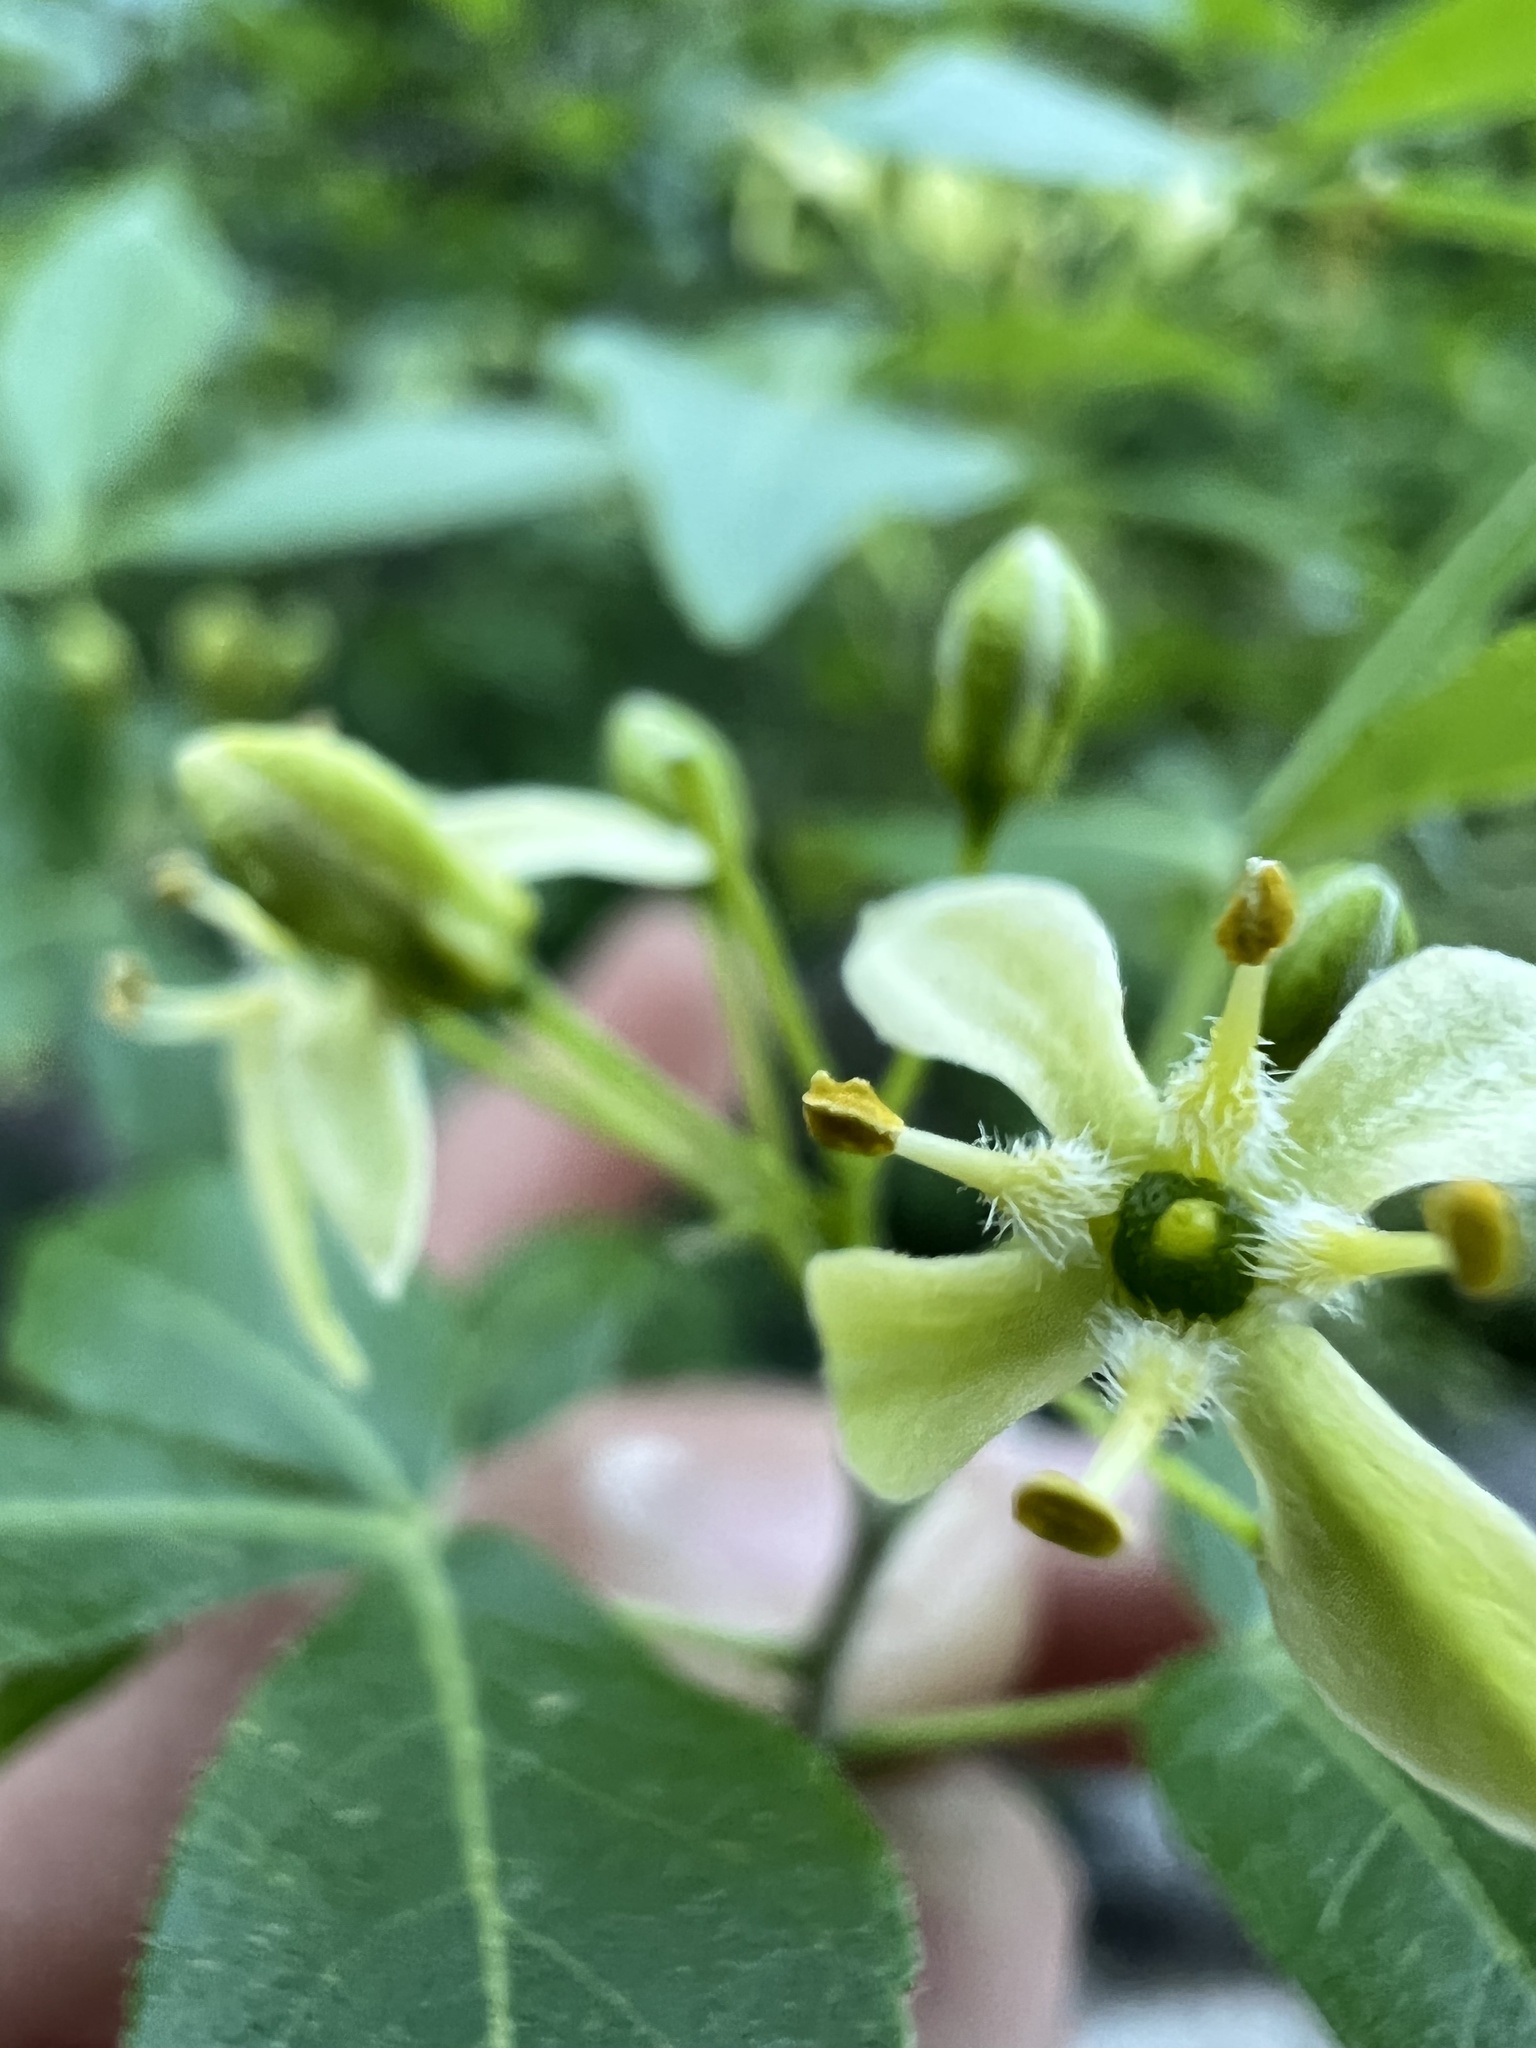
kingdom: Plantae
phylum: Tracheophyta
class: Magnoliopsida
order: Sapindales
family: Rutaceae
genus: Ptelea
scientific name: Ptelea trifoliata
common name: Common hop-tree
